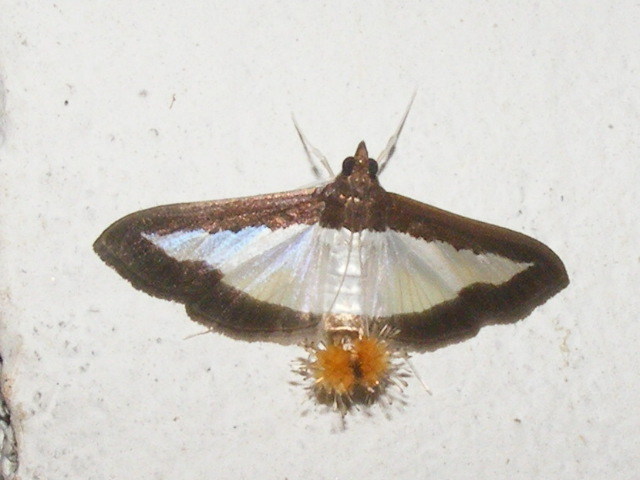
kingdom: Animalia
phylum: Arthropoda
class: Insecta
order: Lepidoptera
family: Crambidae
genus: Diaphania
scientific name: Diaphania indica
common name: Cucumber moth
